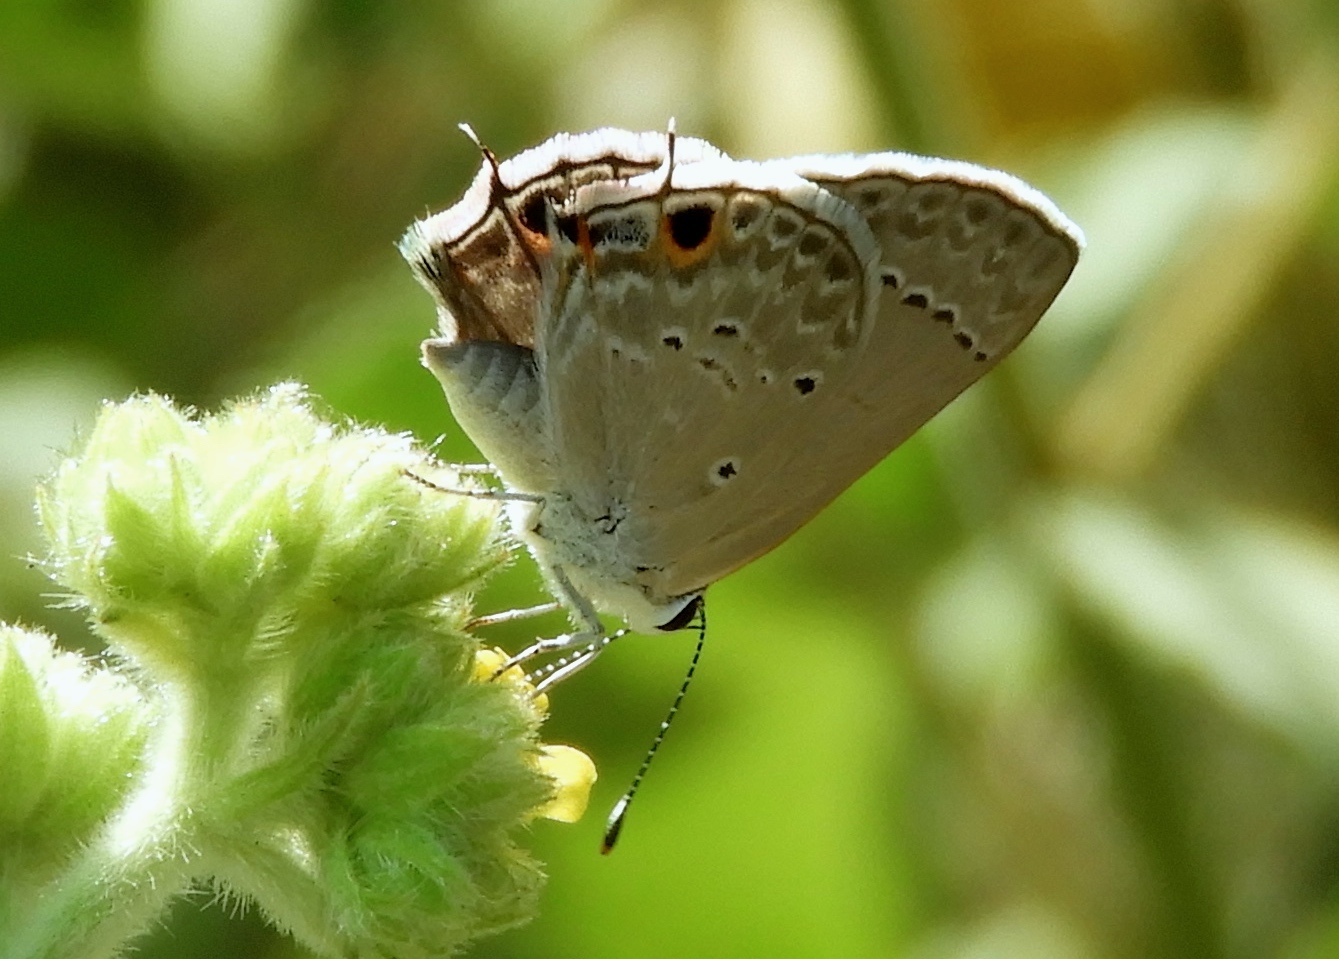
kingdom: Animalia
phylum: Arthropoda
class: Insecta
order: Lepidoptera
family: Lycaenidae
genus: Callicista
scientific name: Callicista columella
